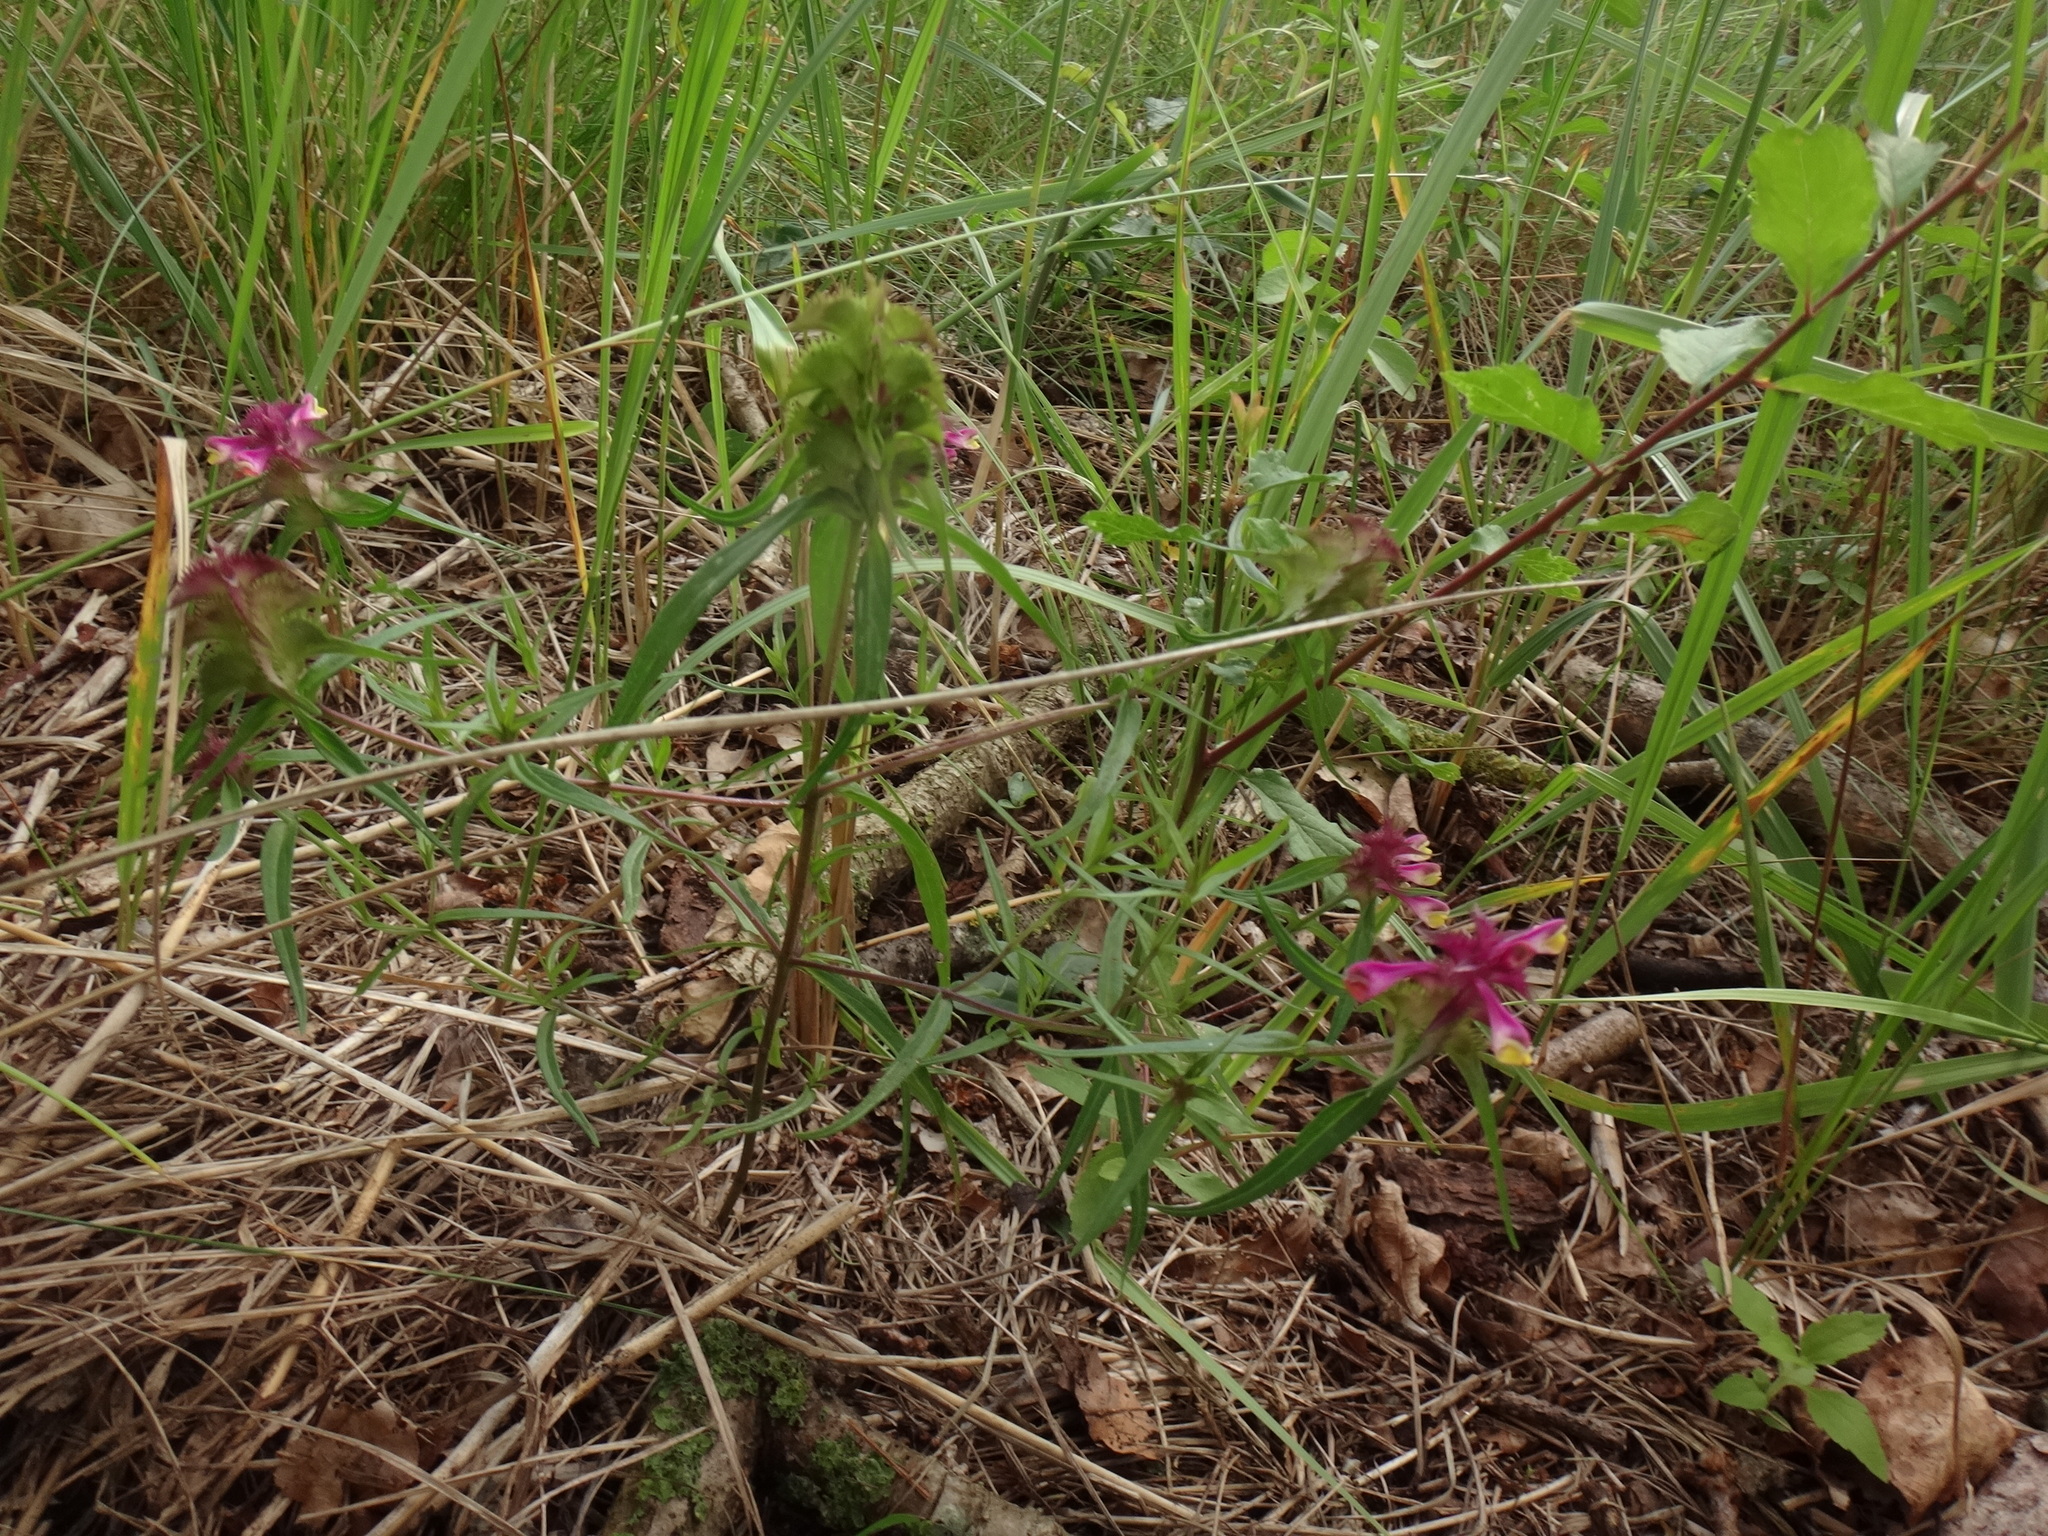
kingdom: Plantae
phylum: Tracheophyta
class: Magnoliopsida
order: Lamiales
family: Orobanchaceae
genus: Melampyrum
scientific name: Melampyrum cristatum
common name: Crested cow-wheat
